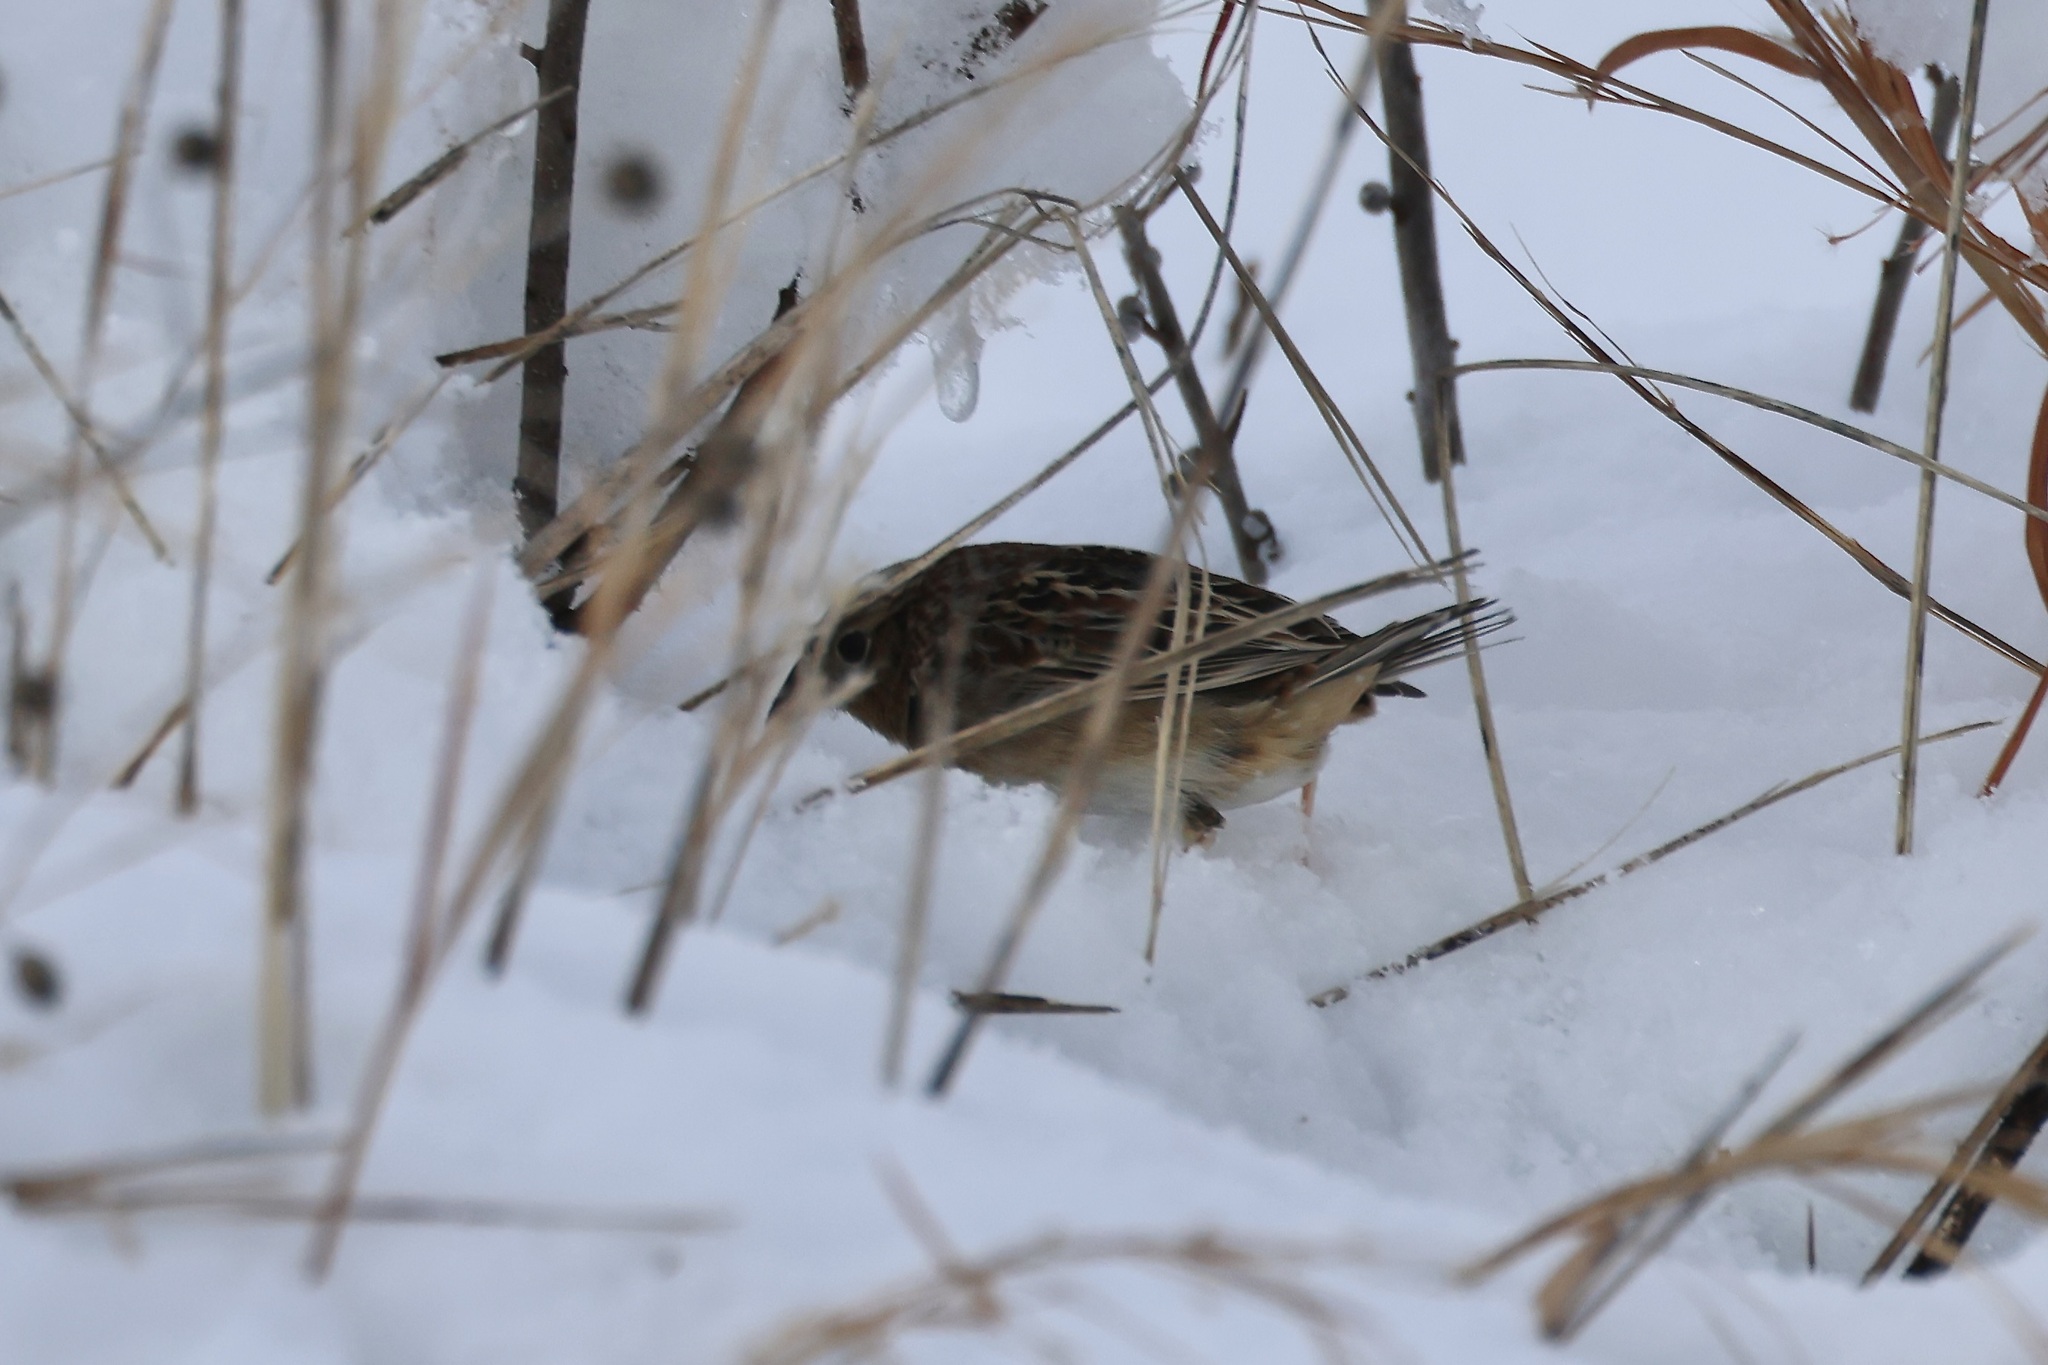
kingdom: Animalia
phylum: Chordata
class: Aves
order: Passeriformes
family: Passerellidae
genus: Ammodramus
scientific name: Ammodramus savannarum
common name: Grasshopper sparrow
